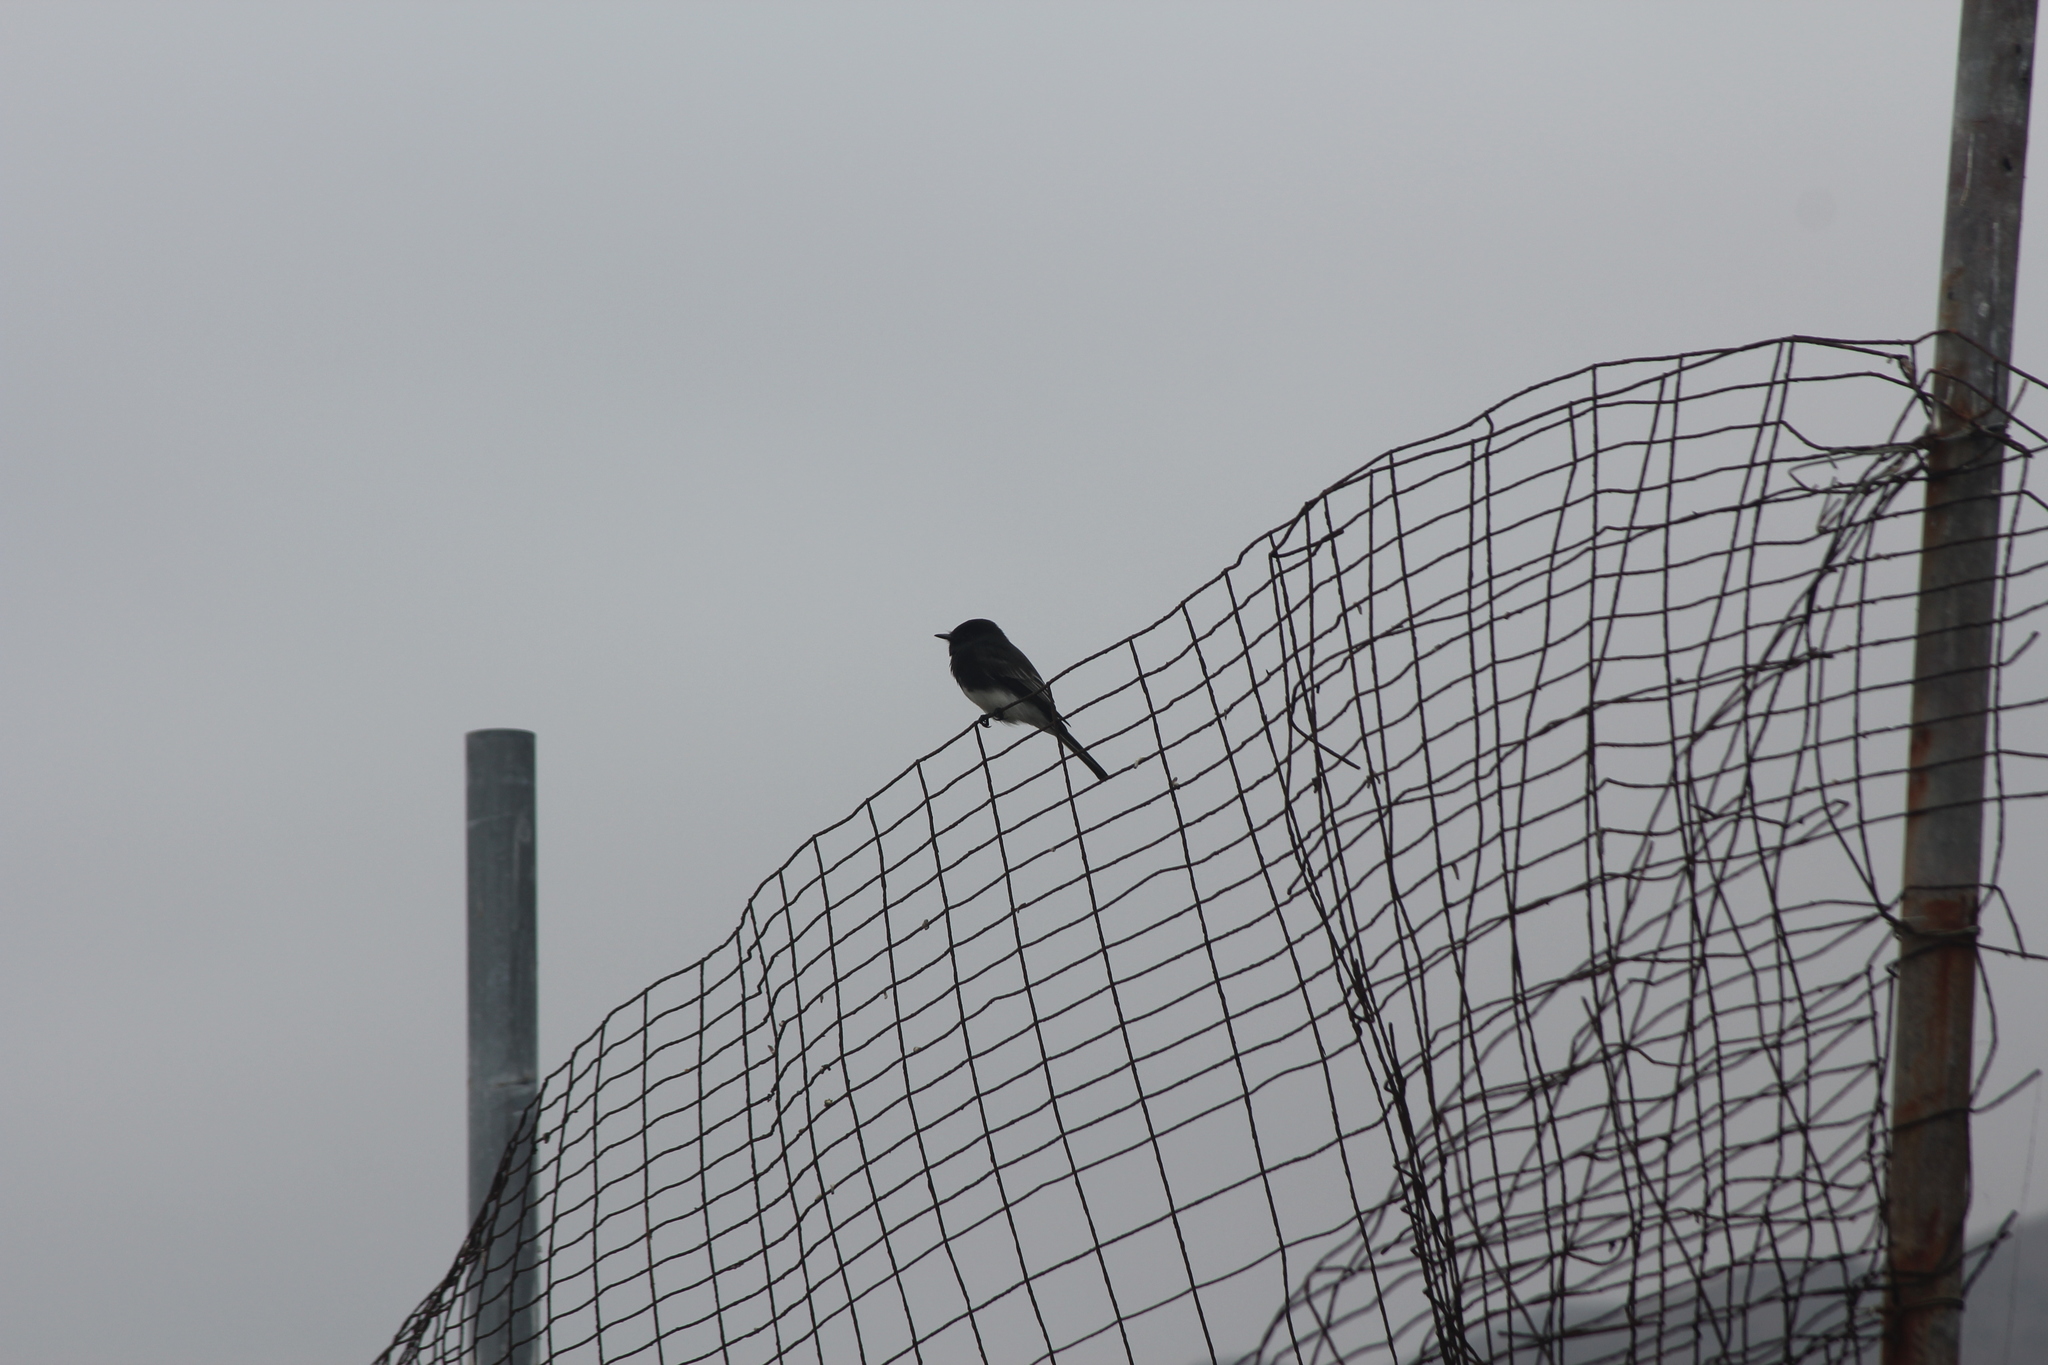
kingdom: Animalia
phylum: Chordata
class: Aves
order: Passeriformes
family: Tyrannidae
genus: Sayornis
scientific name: Sayornis nigricans
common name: Black phoebe
